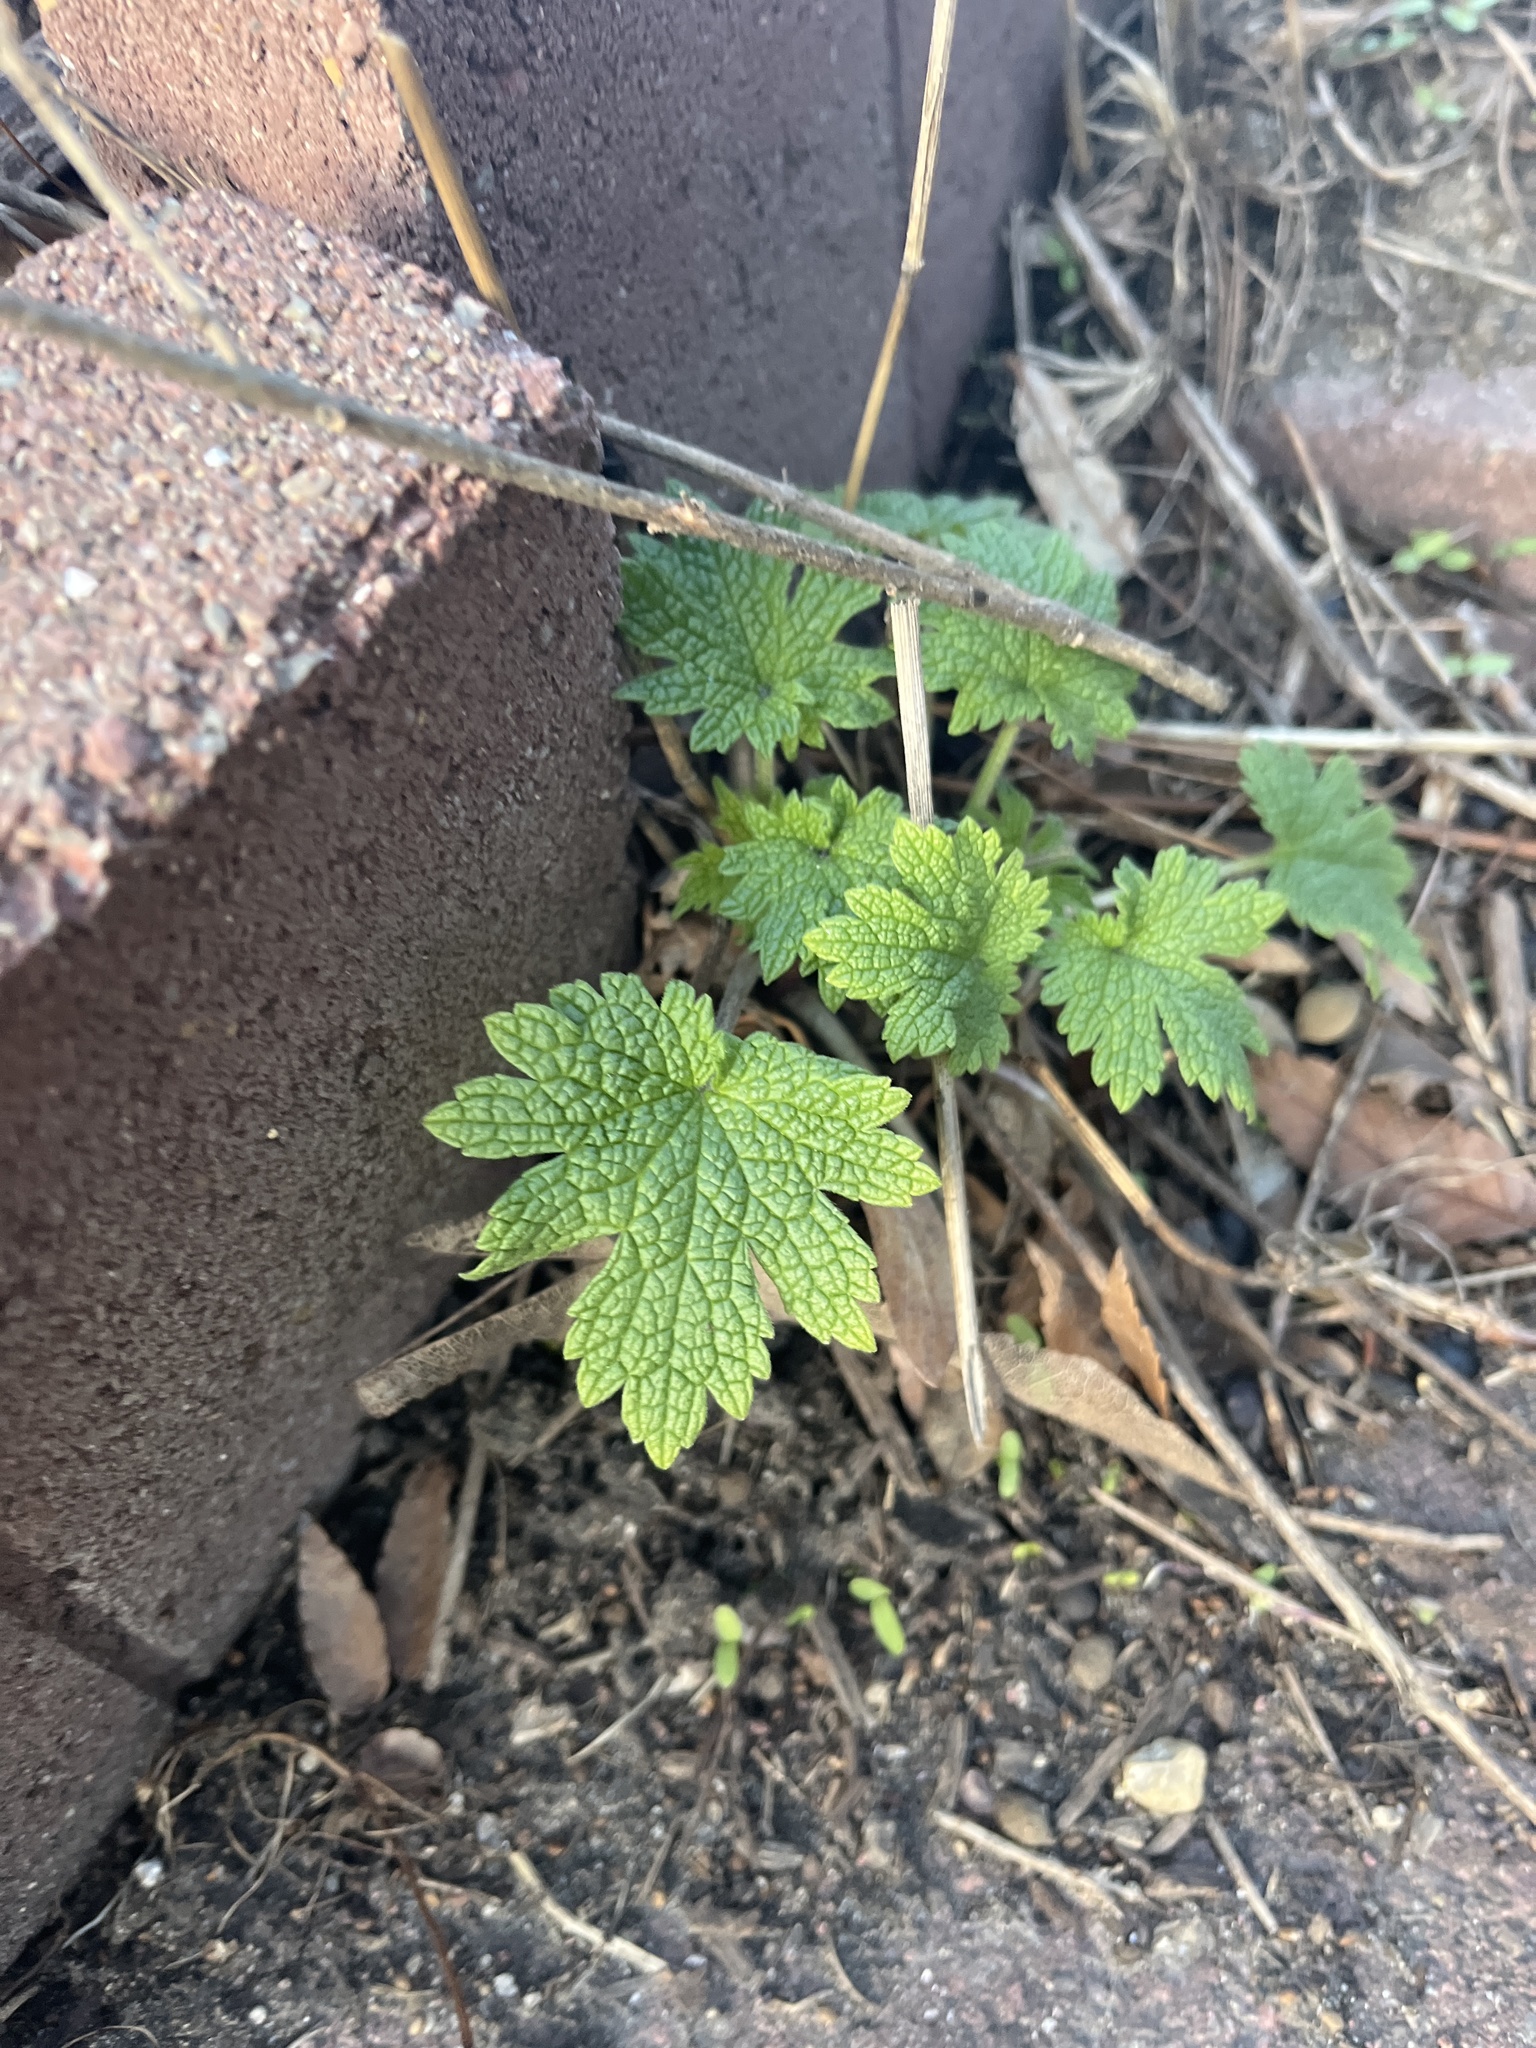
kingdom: Plantae
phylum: Tracheophyta
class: Magnoliopsida
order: Lamiales
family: Lamiaceae
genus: Leonurus
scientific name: Leonurus cardiaca
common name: Motherwort
